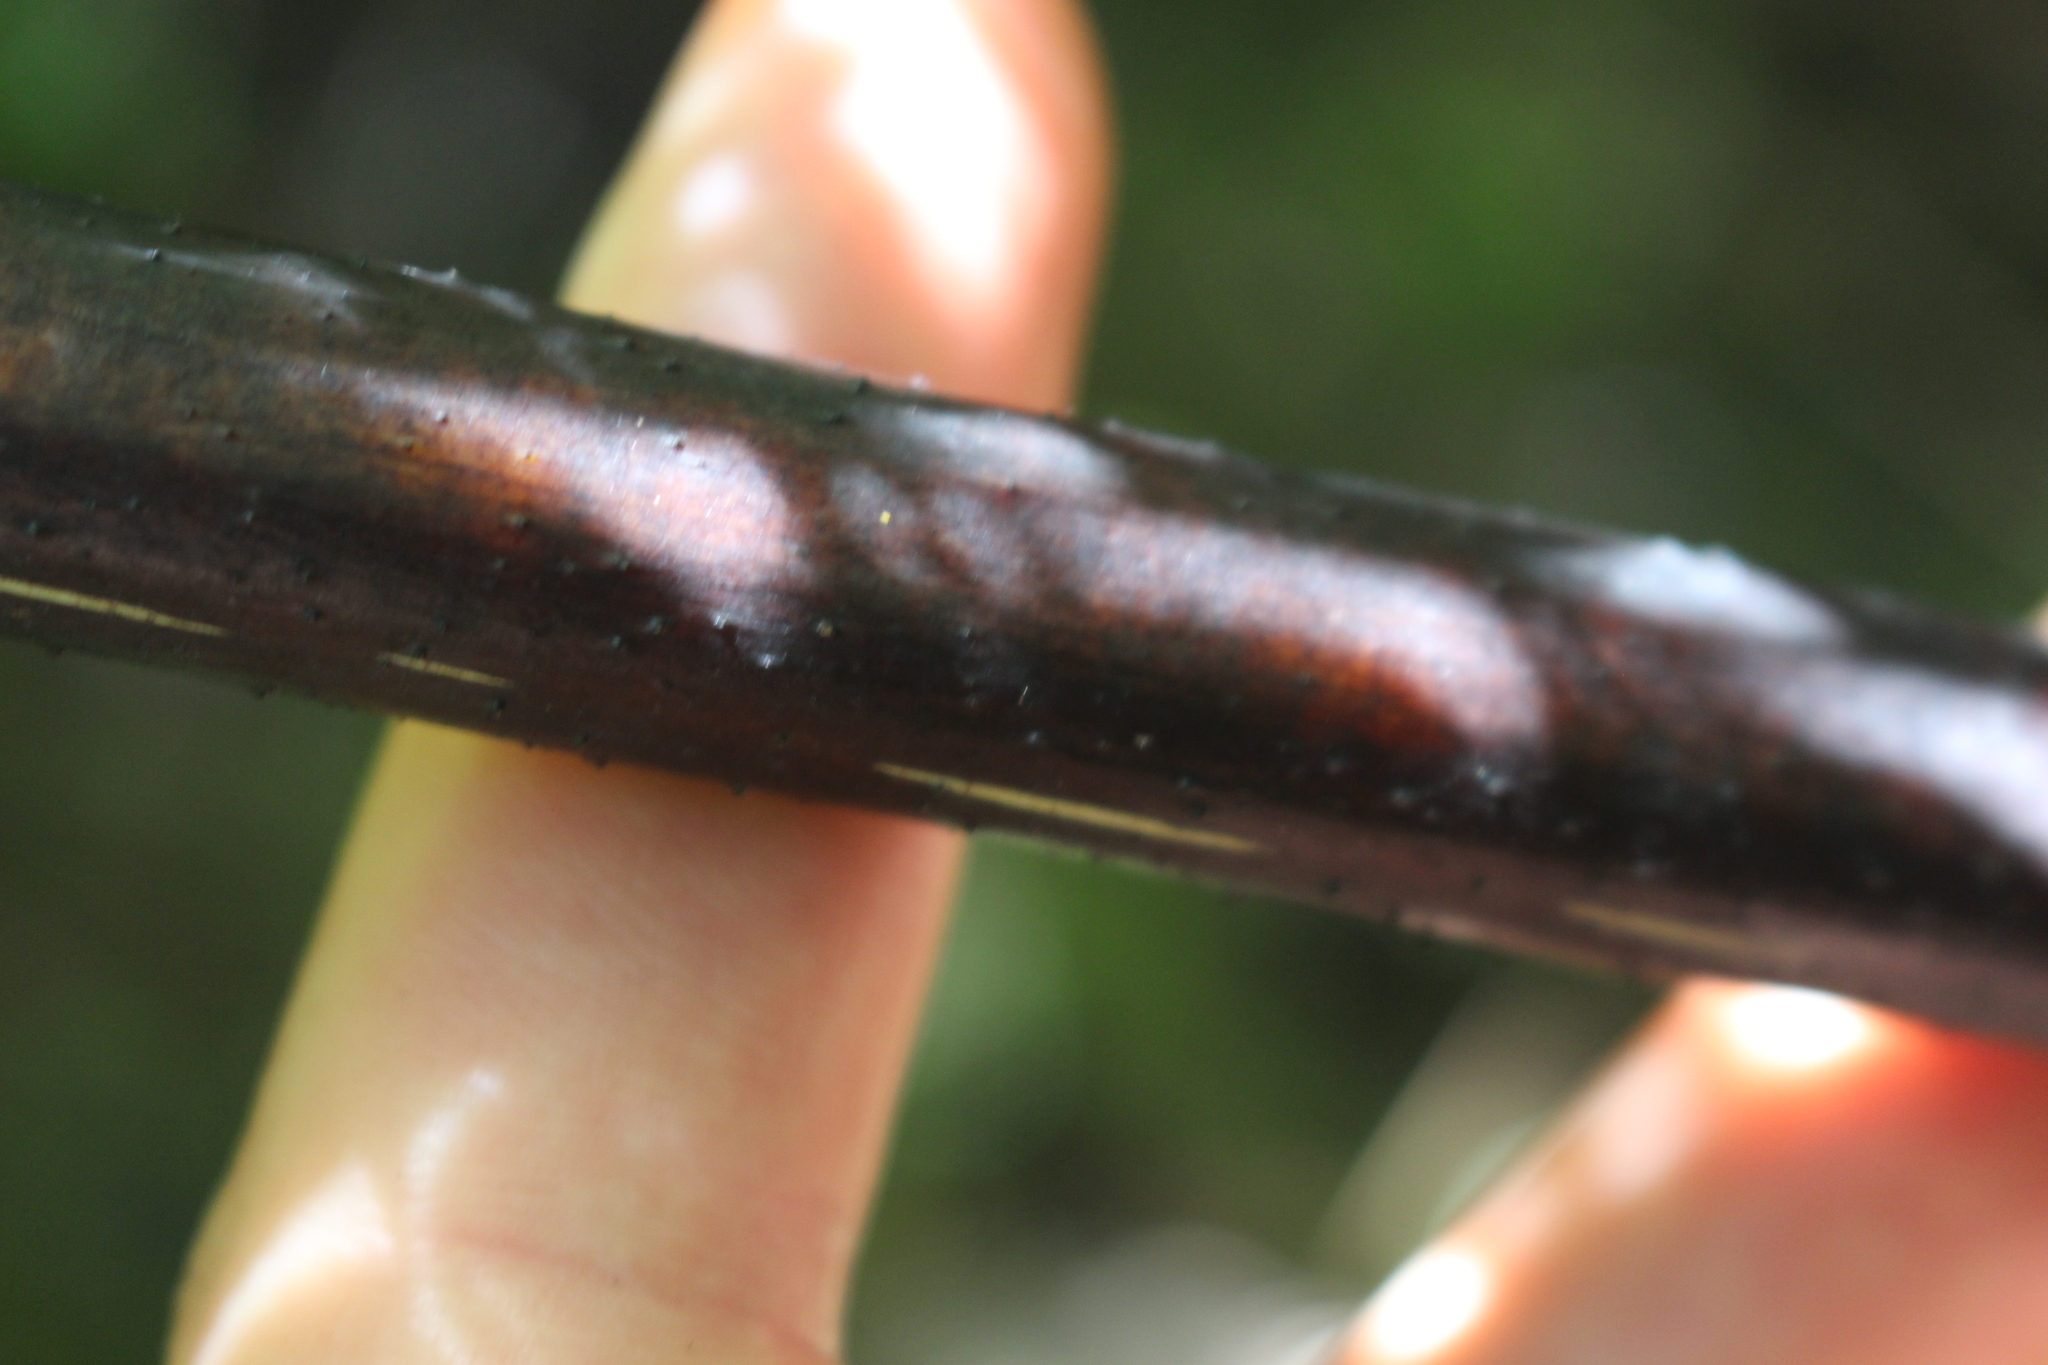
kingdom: Plantae
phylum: Tracheophyta
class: Polypodiopsida
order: Cyatheales
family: Cyatheaceae
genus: Sphaeropteris
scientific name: Sphaeropteris medullaris
